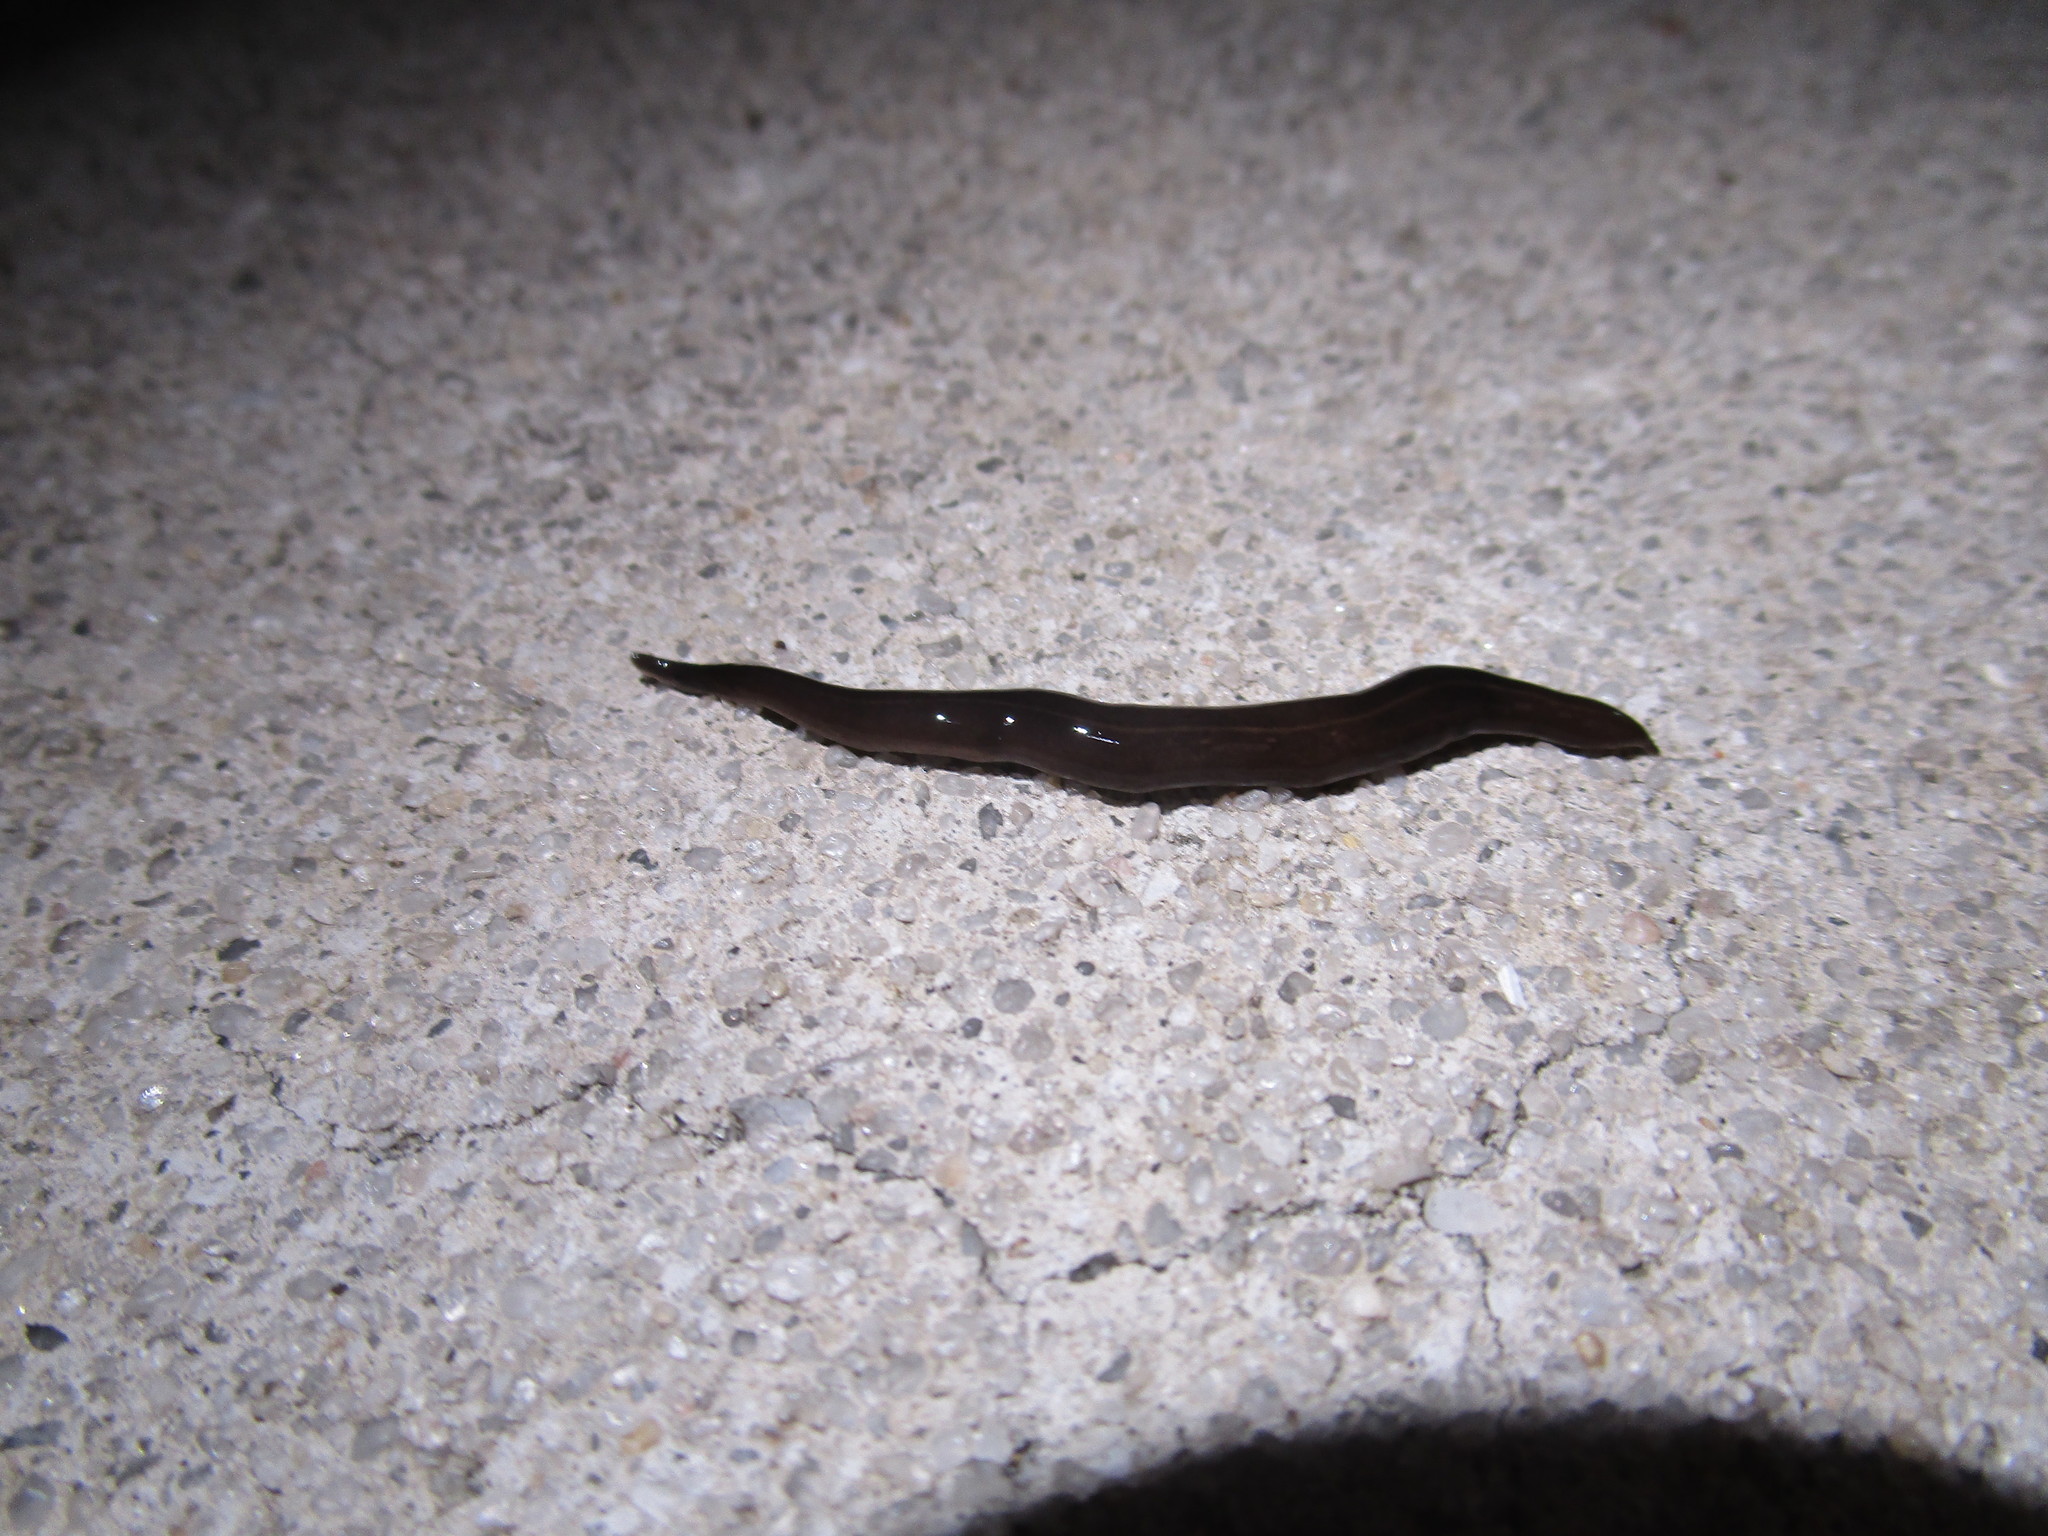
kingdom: Animalia
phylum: Platyhelminthes
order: Tricladida
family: Geoplanidae
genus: Platydemus
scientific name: Platydemus manokwari
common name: New guinea flatworm
